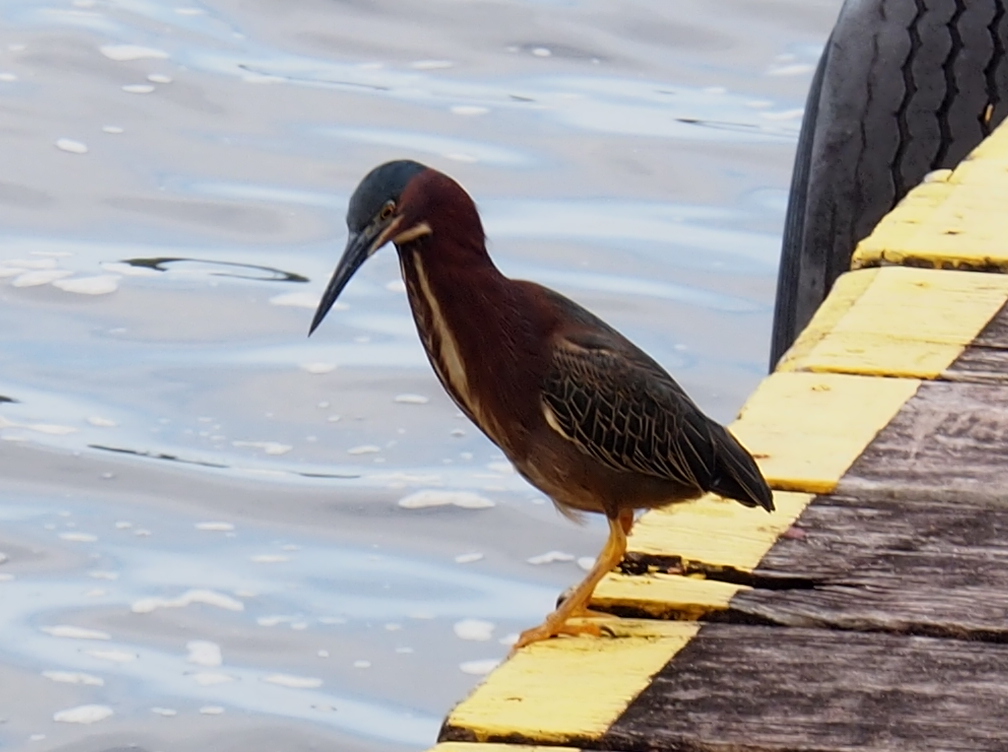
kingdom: Animalia
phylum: Chordata
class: Aves
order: Pelecaniformes
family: Ardeidae
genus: Butorides
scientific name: Butorides virescens
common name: Green heron
